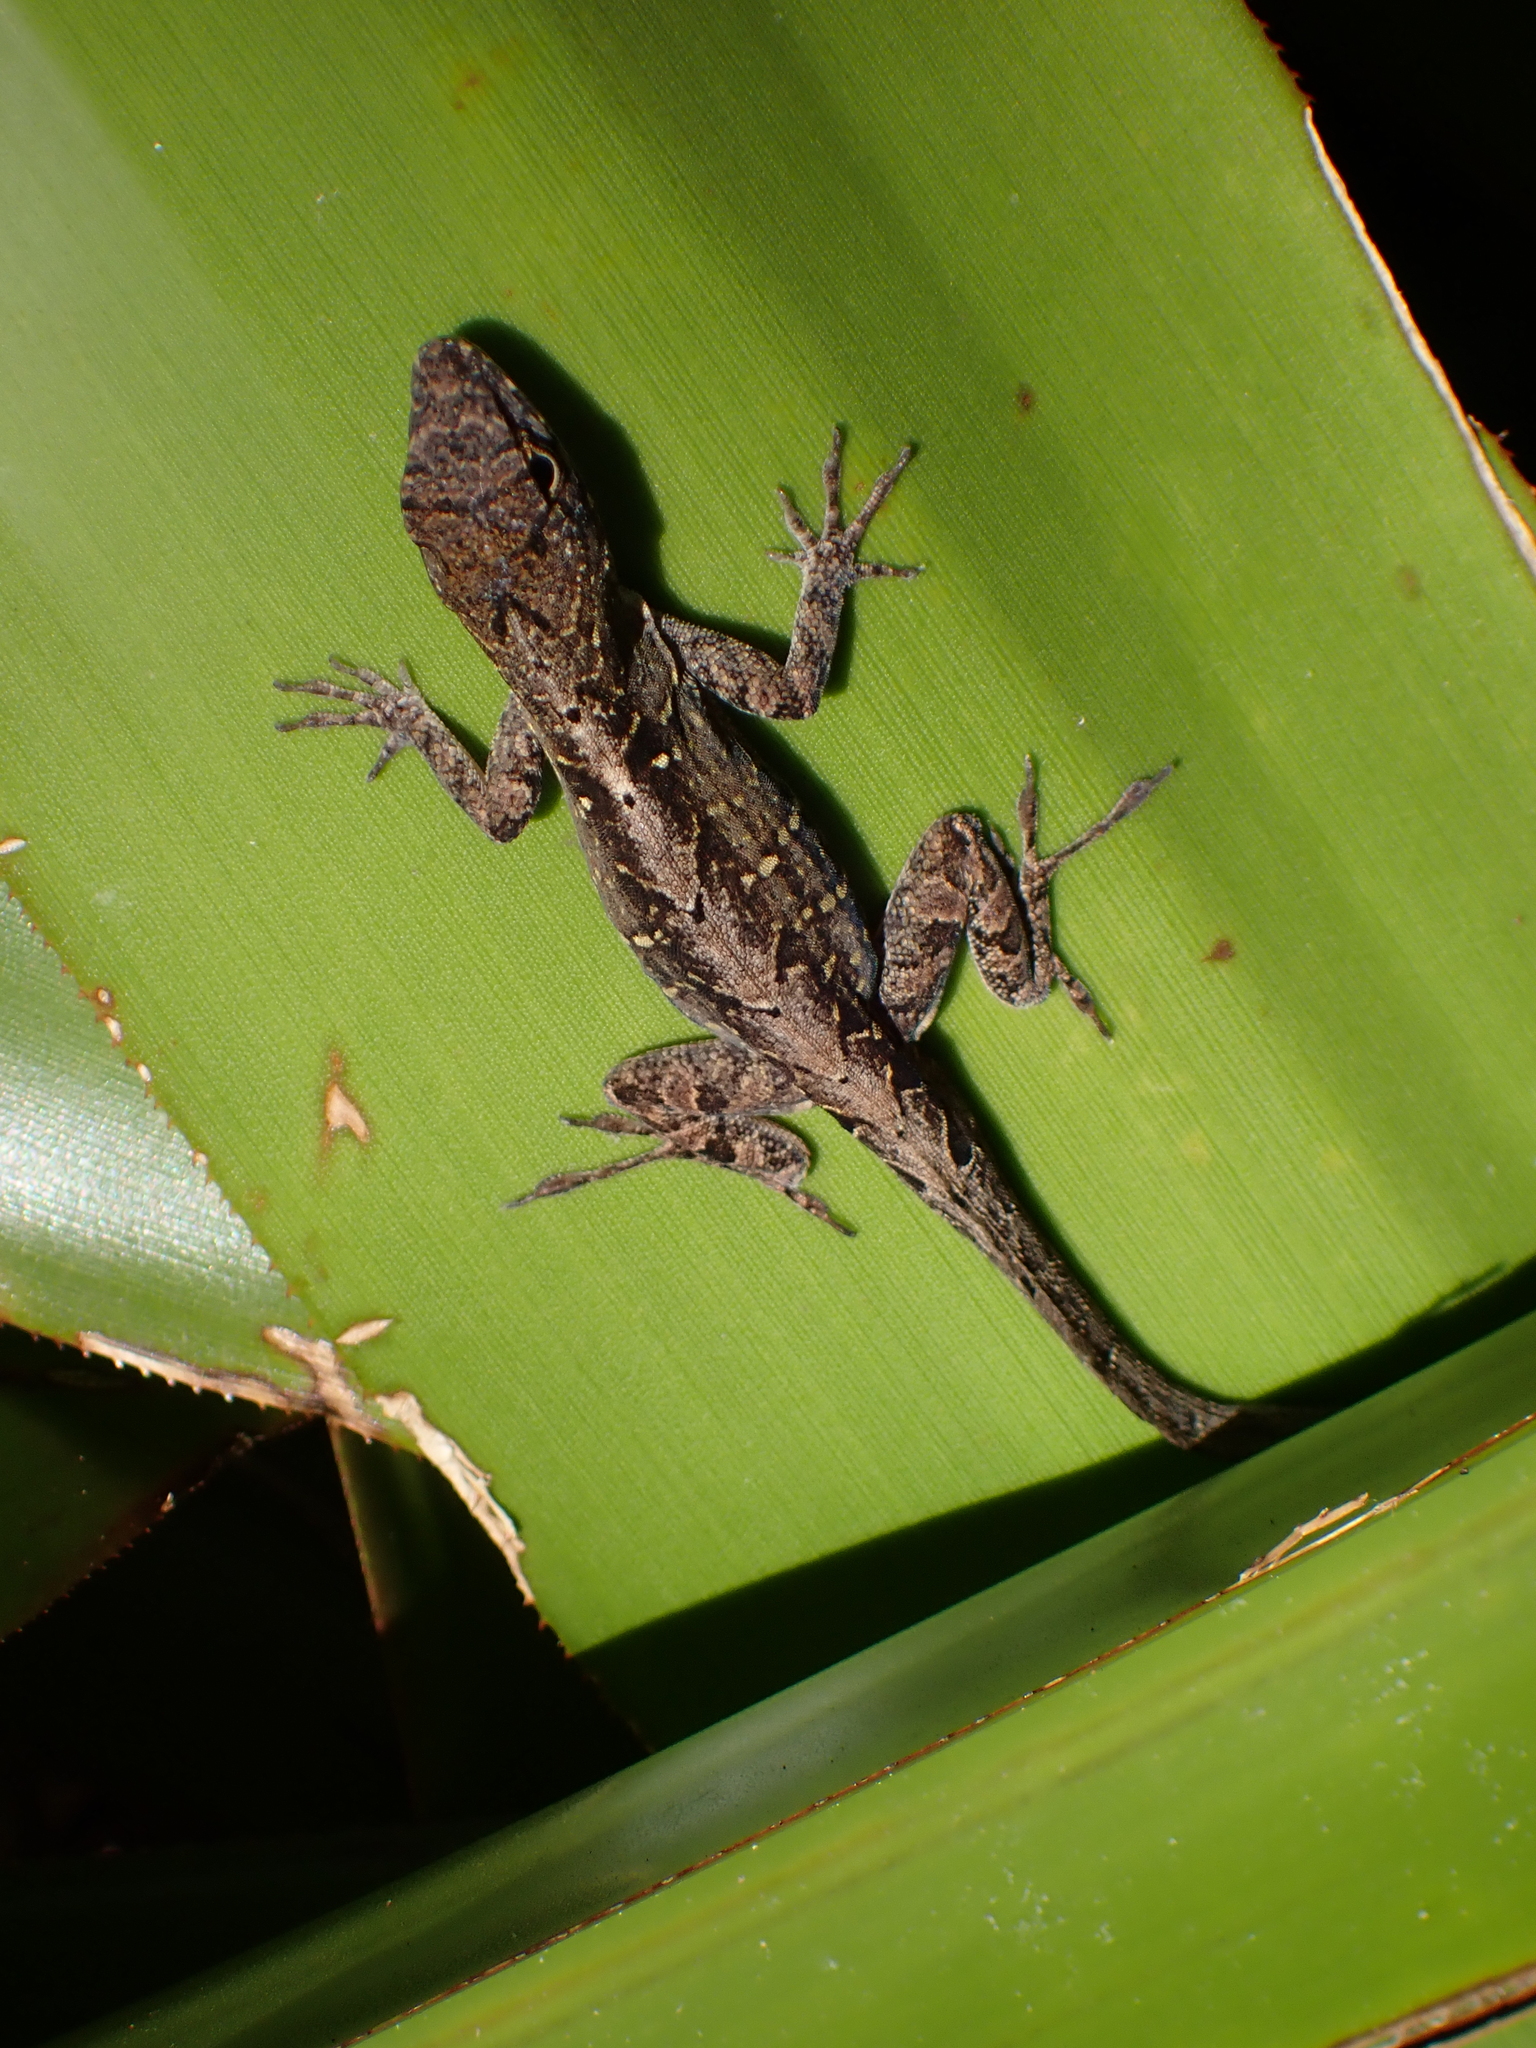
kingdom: Animalia
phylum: Chordata
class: Squamata
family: Dactyloidae
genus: Anolis
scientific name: Anolis sagrei
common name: Brown anole
